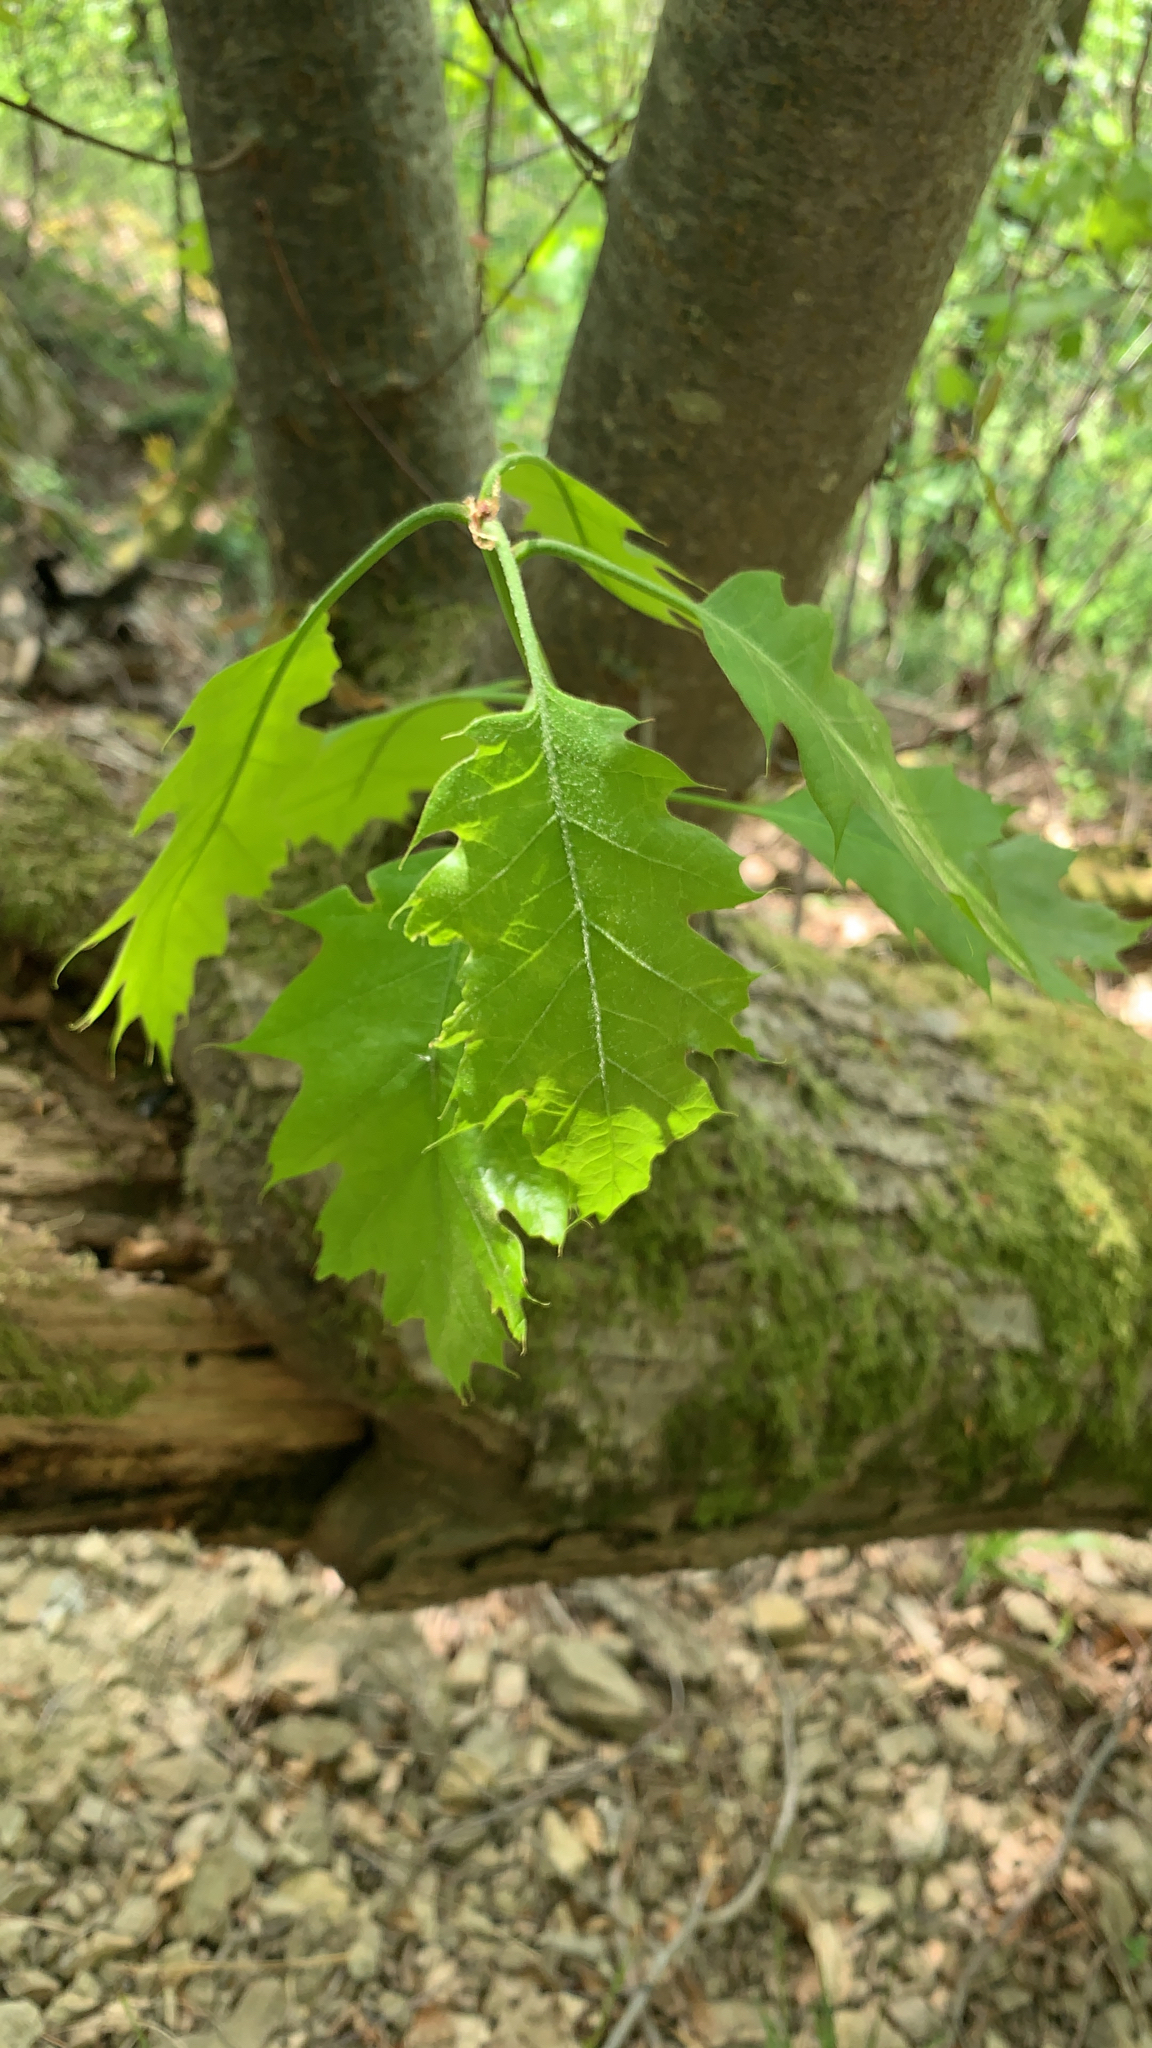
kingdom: Plantae
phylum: Tracheophyta
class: Magnoliopsida
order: Fagales
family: Fagaceae
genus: Quercus
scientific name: Quercus rubra
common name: Red oak
